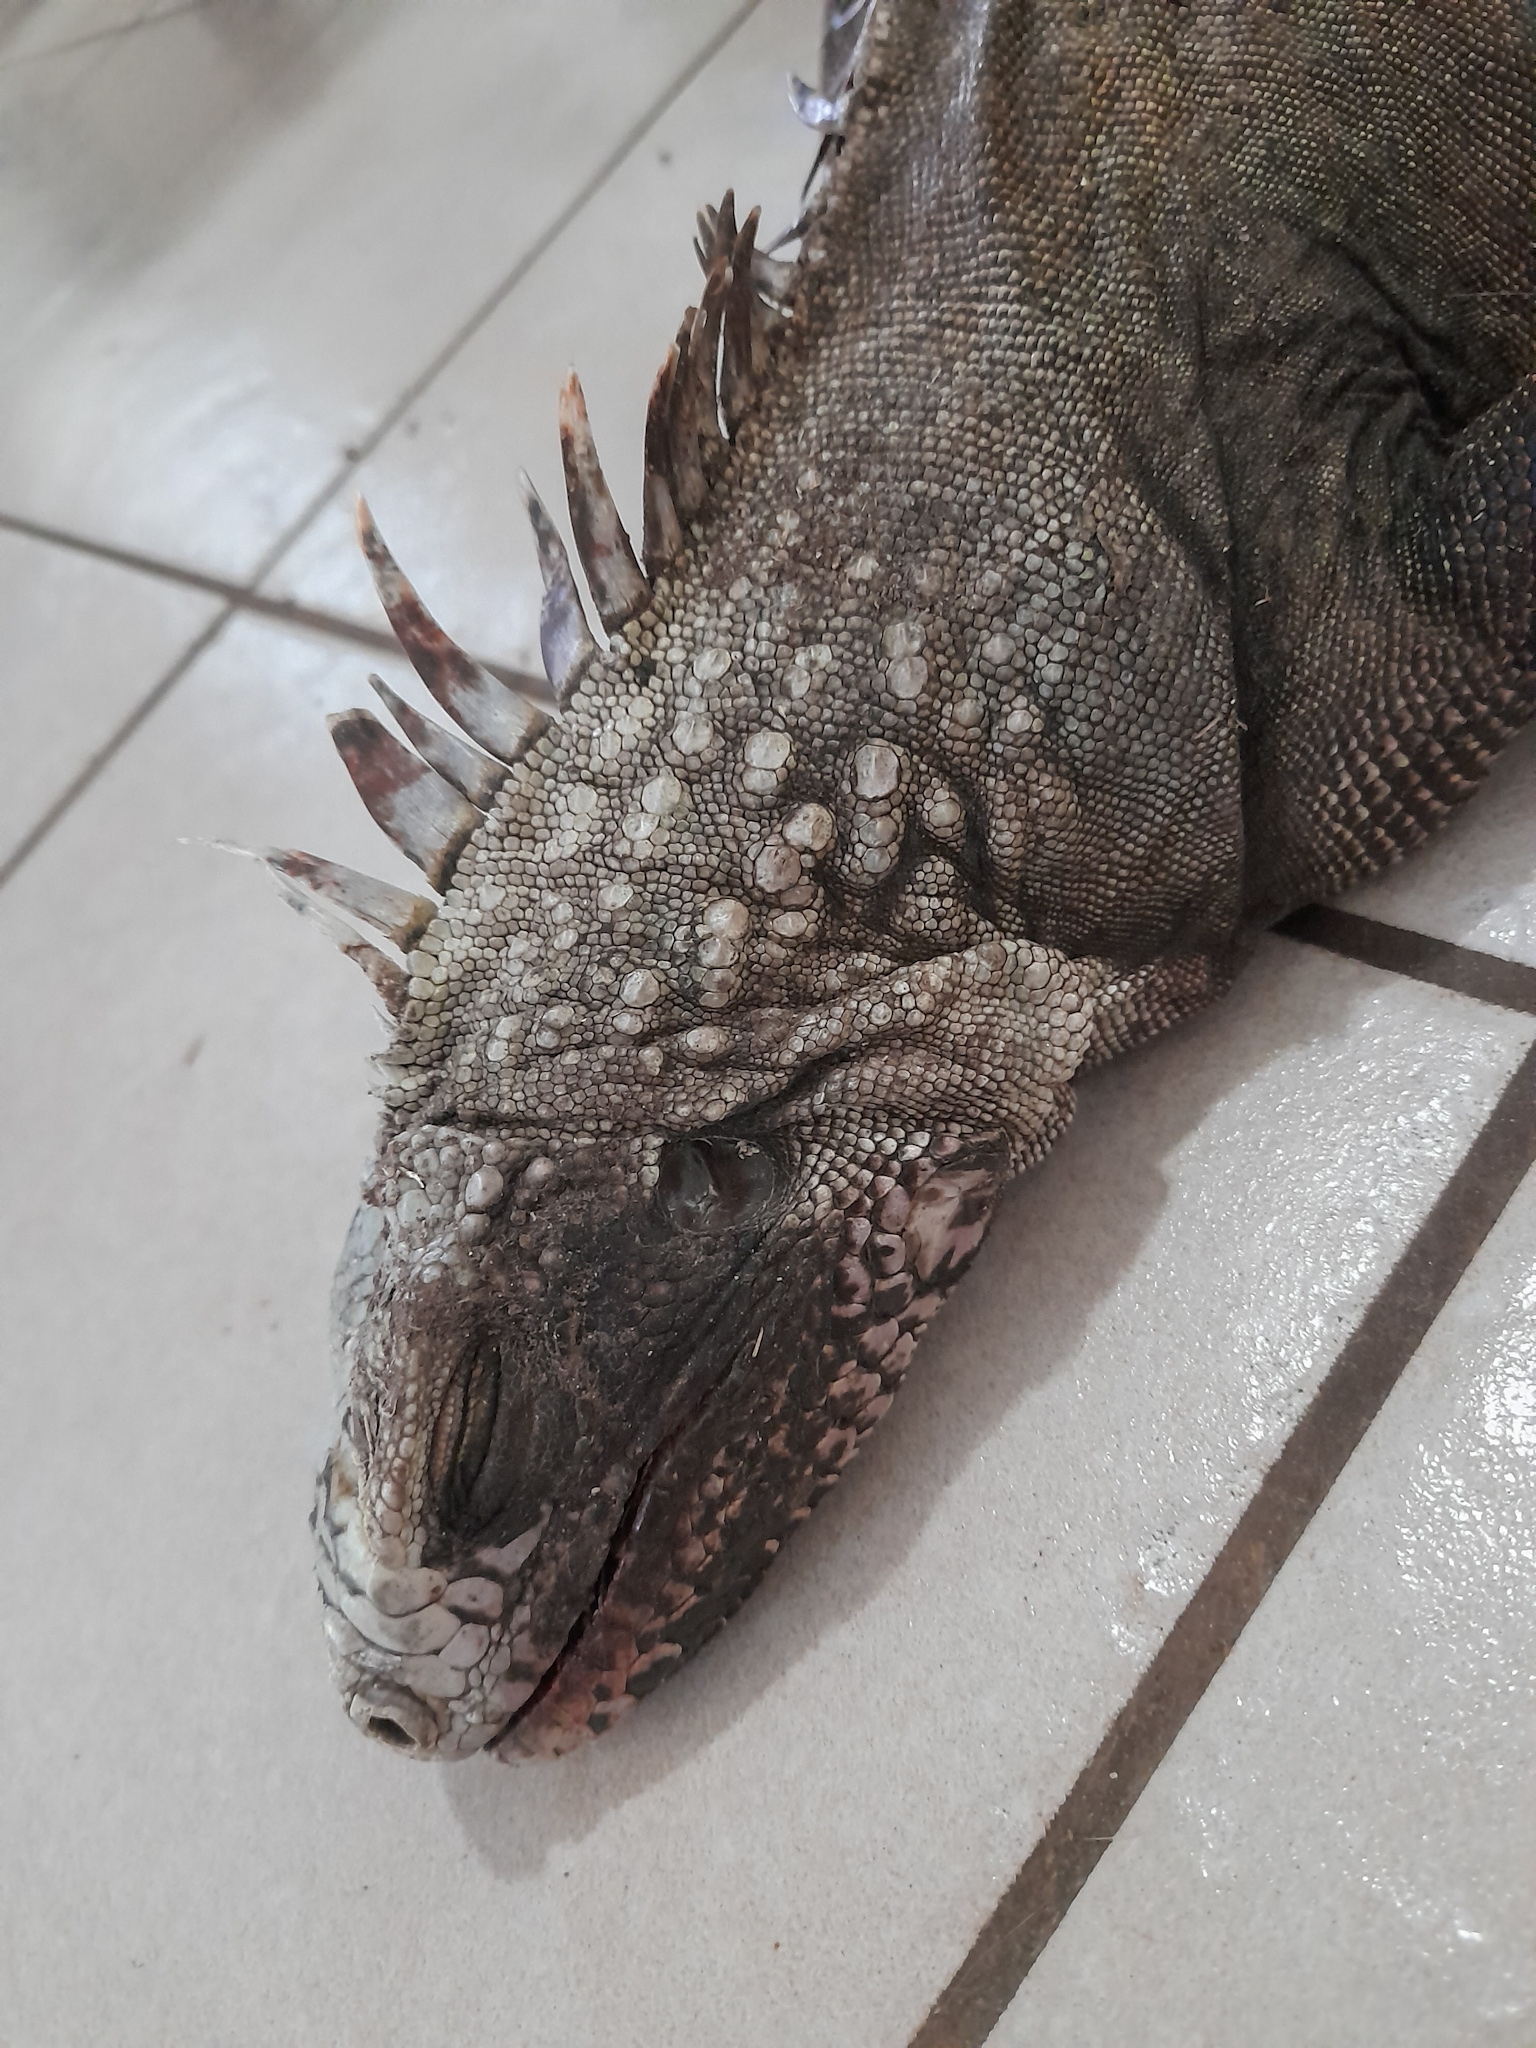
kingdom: Animalia
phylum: Chordata
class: Squamata
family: Iguanidae
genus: Iguana
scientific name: Iguana iguana
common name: Green iguana
